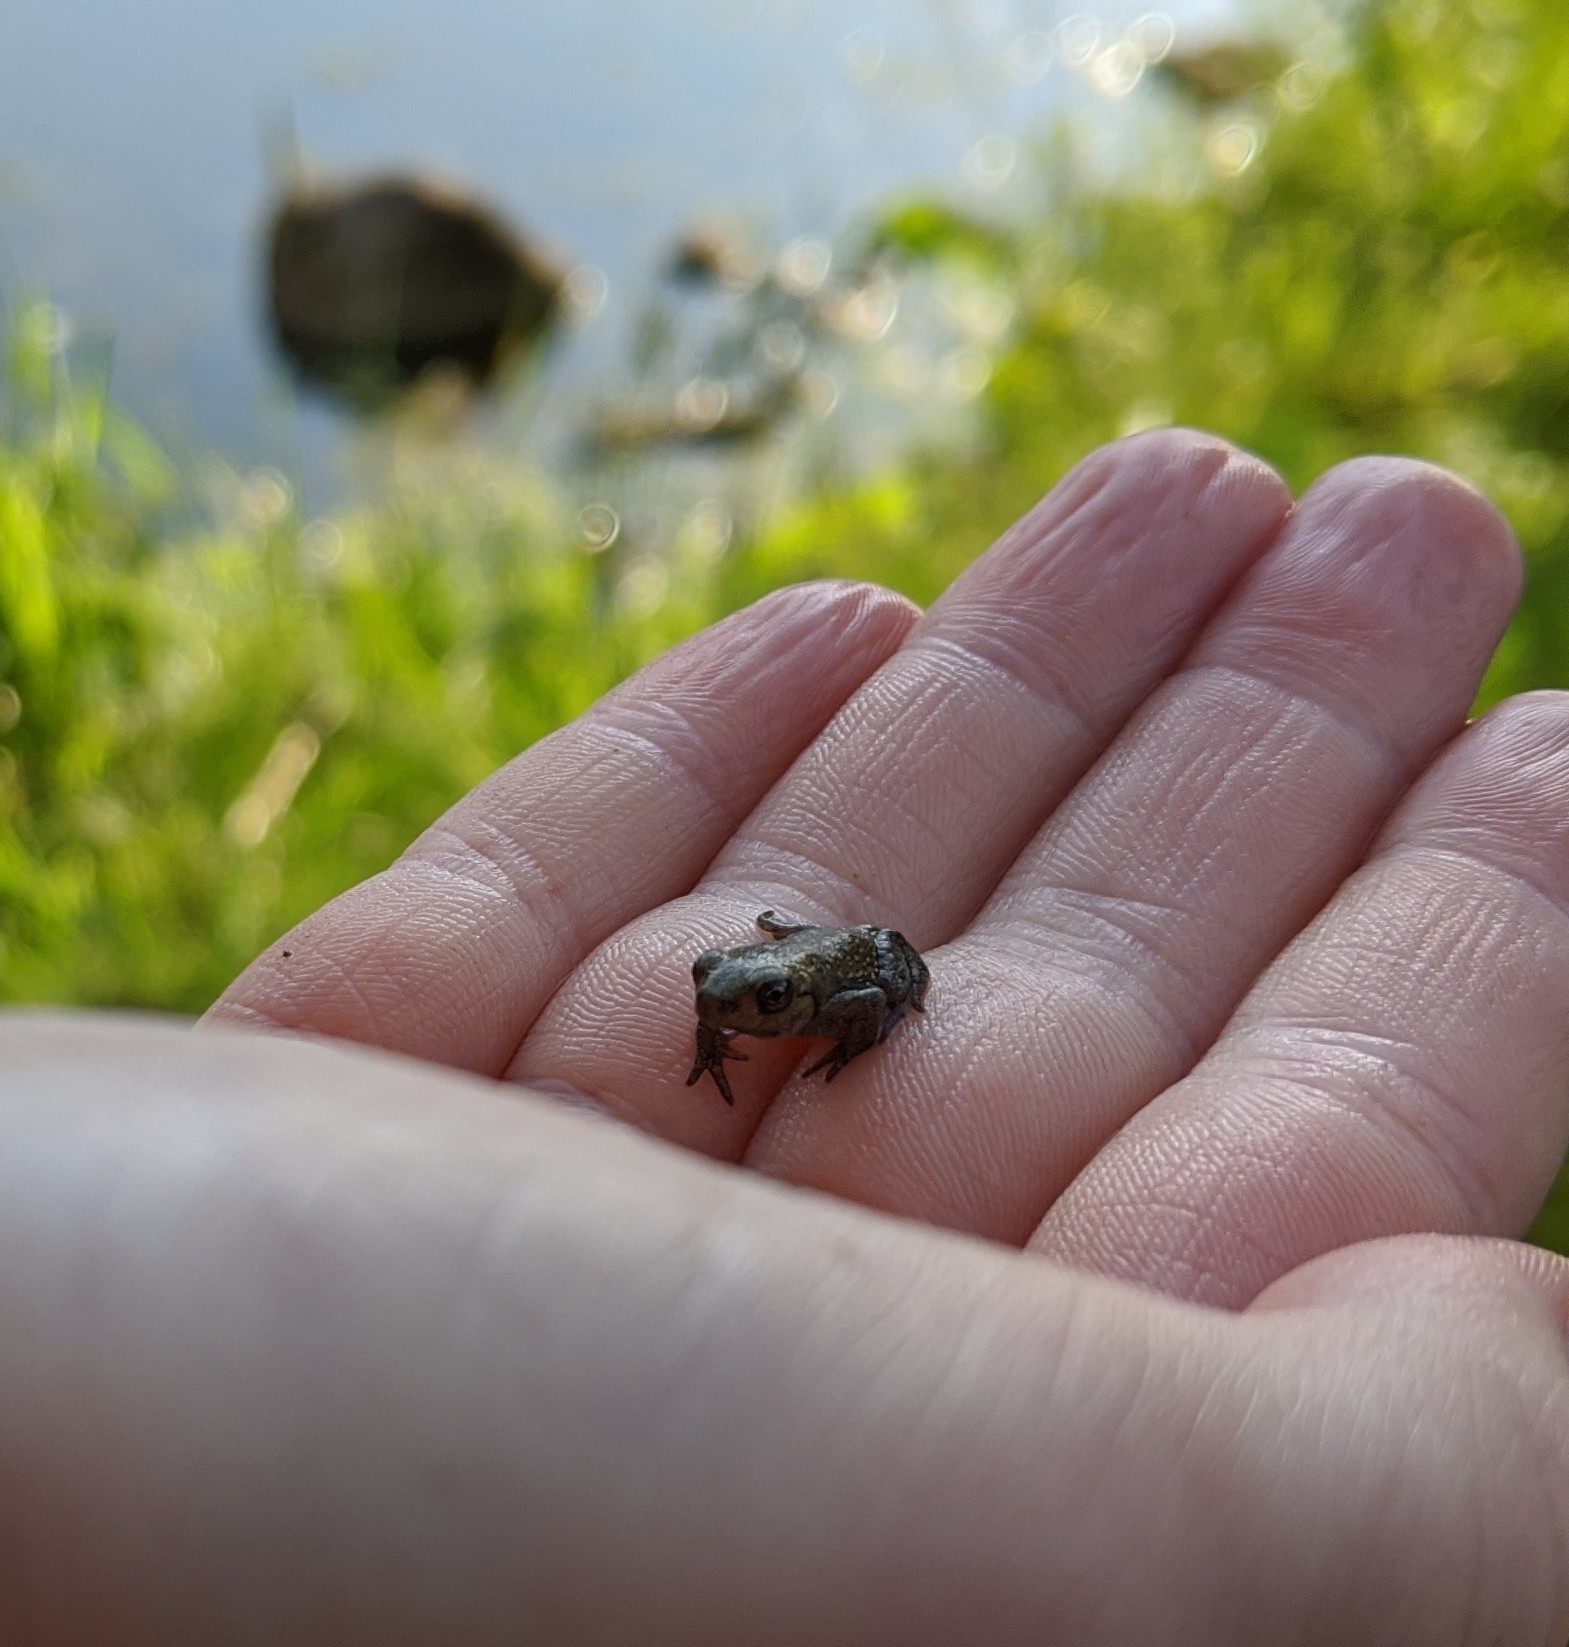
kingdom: Animalia
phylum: Chordata
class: Amphibia
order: Anura
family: Bufonidae
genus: Bufo
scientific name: Bufo bufo
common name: Common toad
